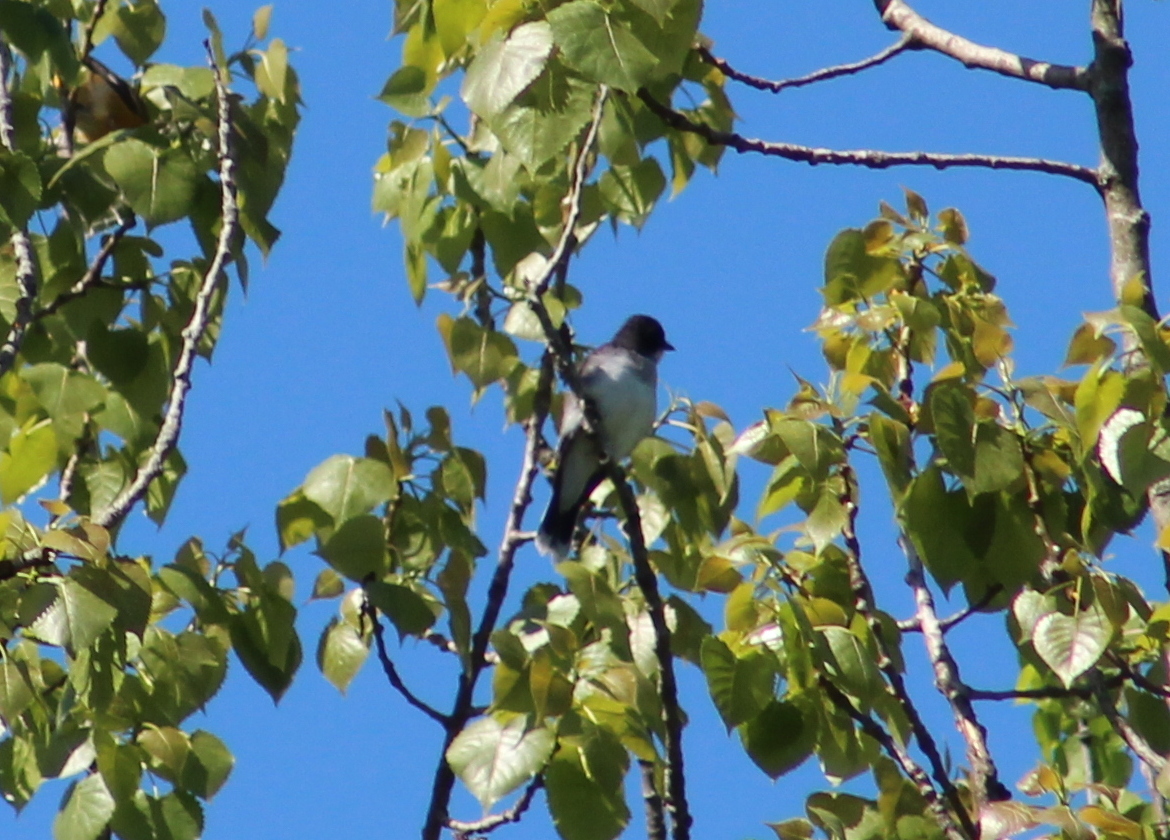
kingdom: Animalia
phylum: Chordata
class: Aves
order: Passeriformes
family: Tyrannidae
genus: Tyrannus
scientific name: Tyrannus tyrannus
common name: Eastern kingbird
